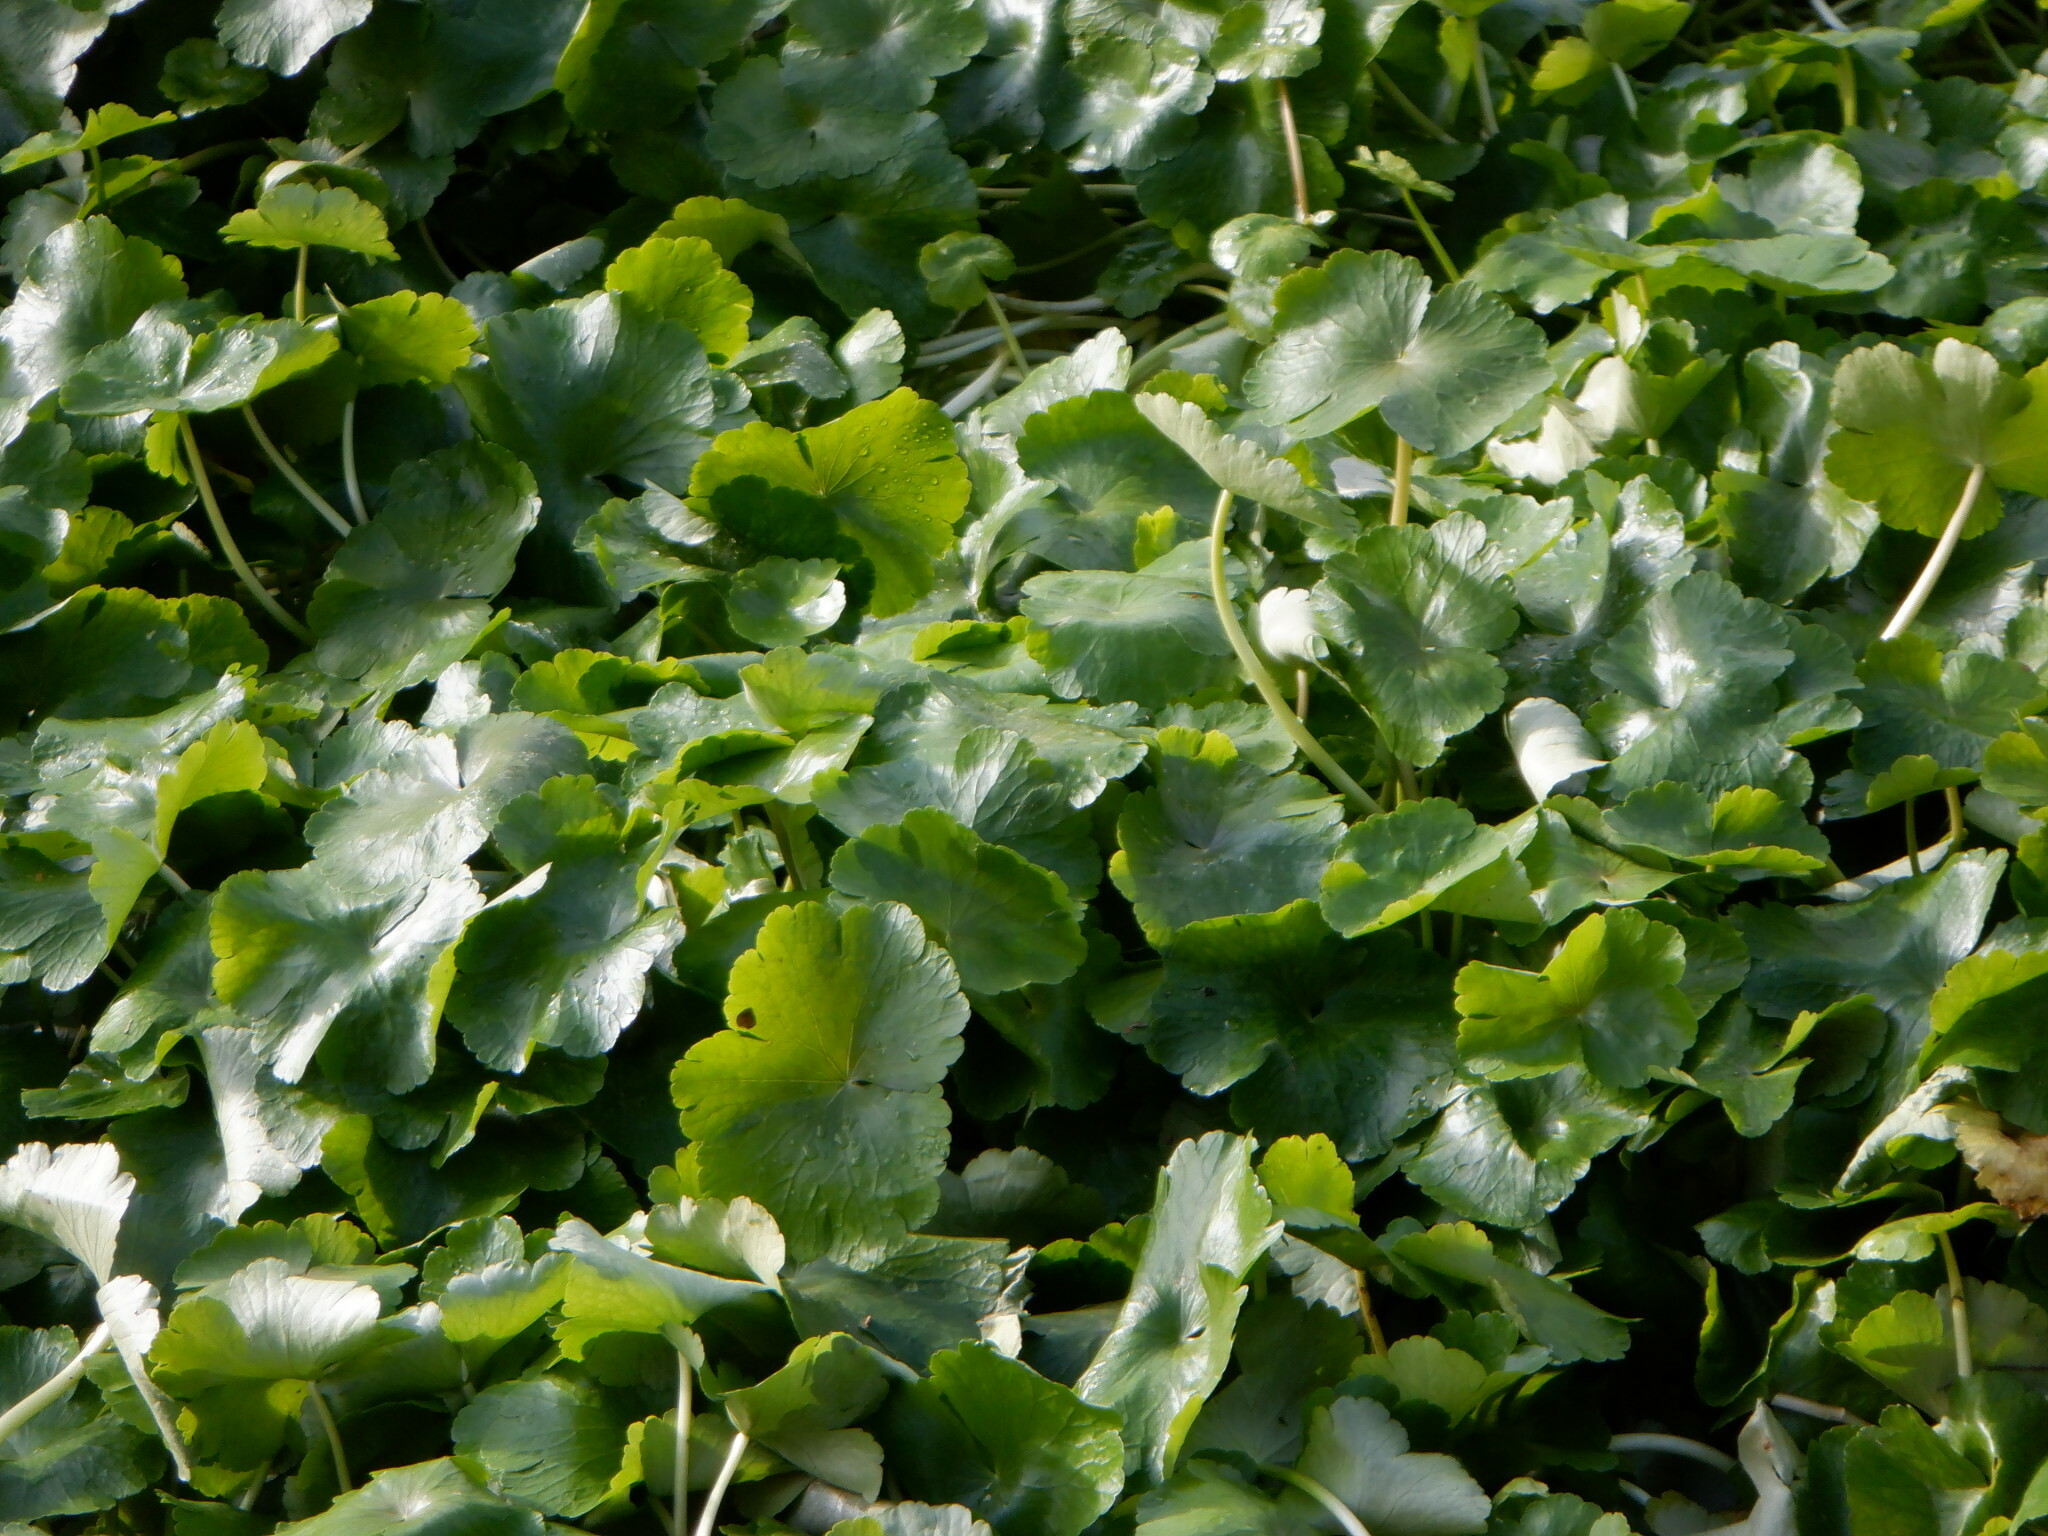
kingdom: Plantae
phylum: Tracheophyta
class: Magnoliopsida
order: Apiales
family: Araliaceae
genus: Hydrocotyle
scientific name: Hydrocotyle ranunculoides
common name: Floating pennywort
